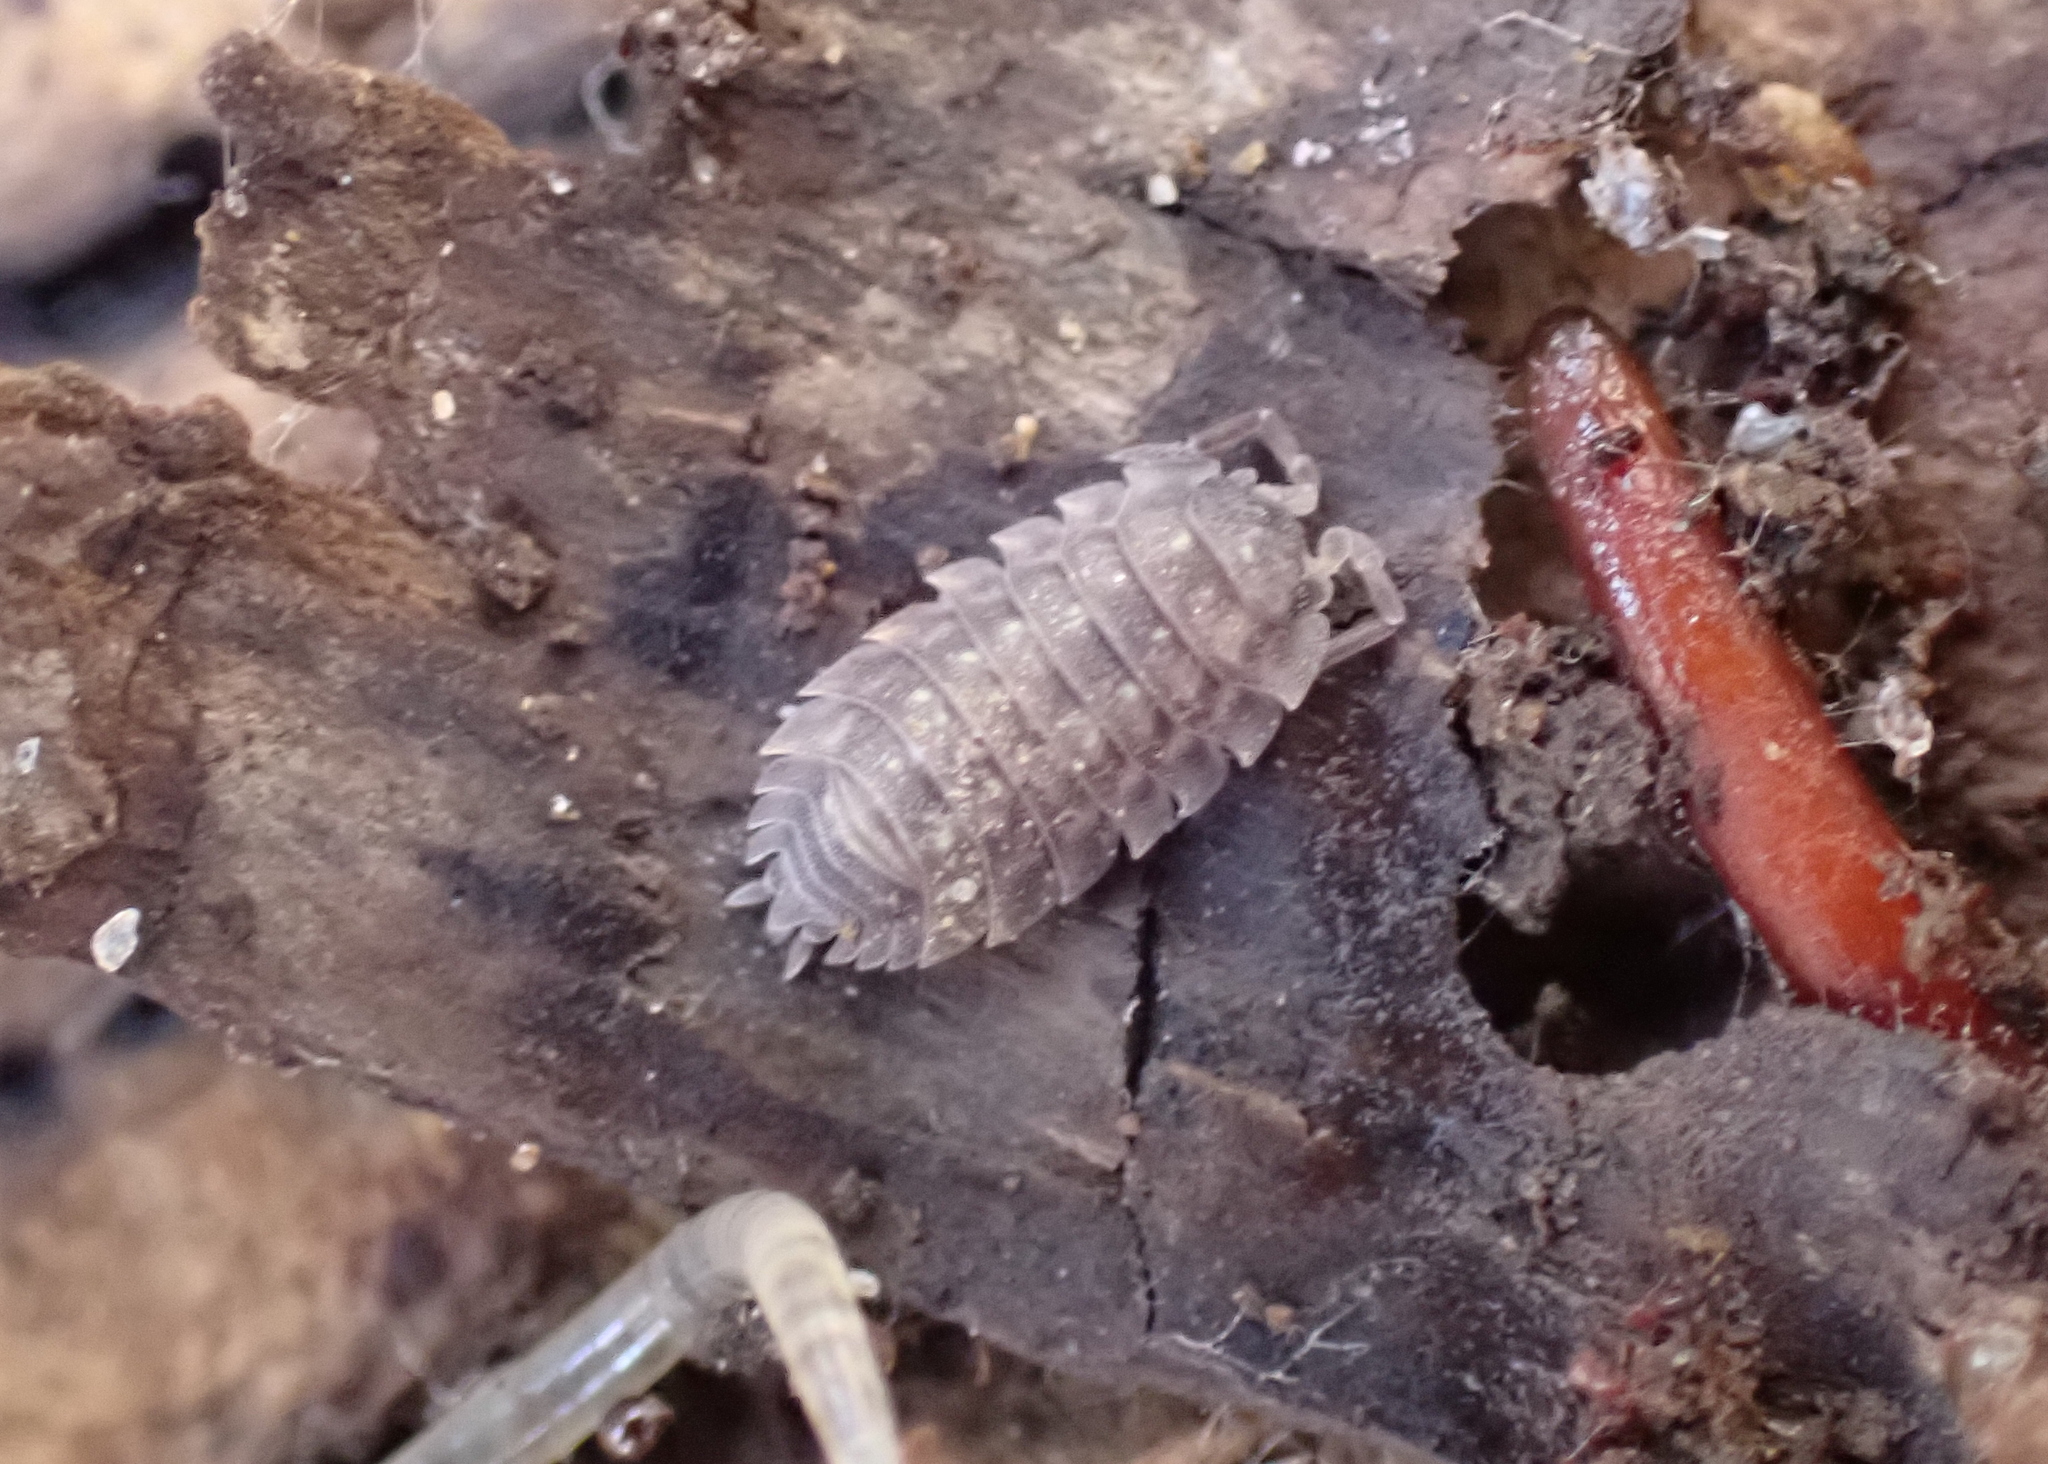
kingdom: Animalia
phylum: Arthropoda
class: Malacostraca
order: Isopoda
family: Oniscidae
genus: Oniscus
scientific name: Oniscus asellus
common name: Common shiny woodlouse
